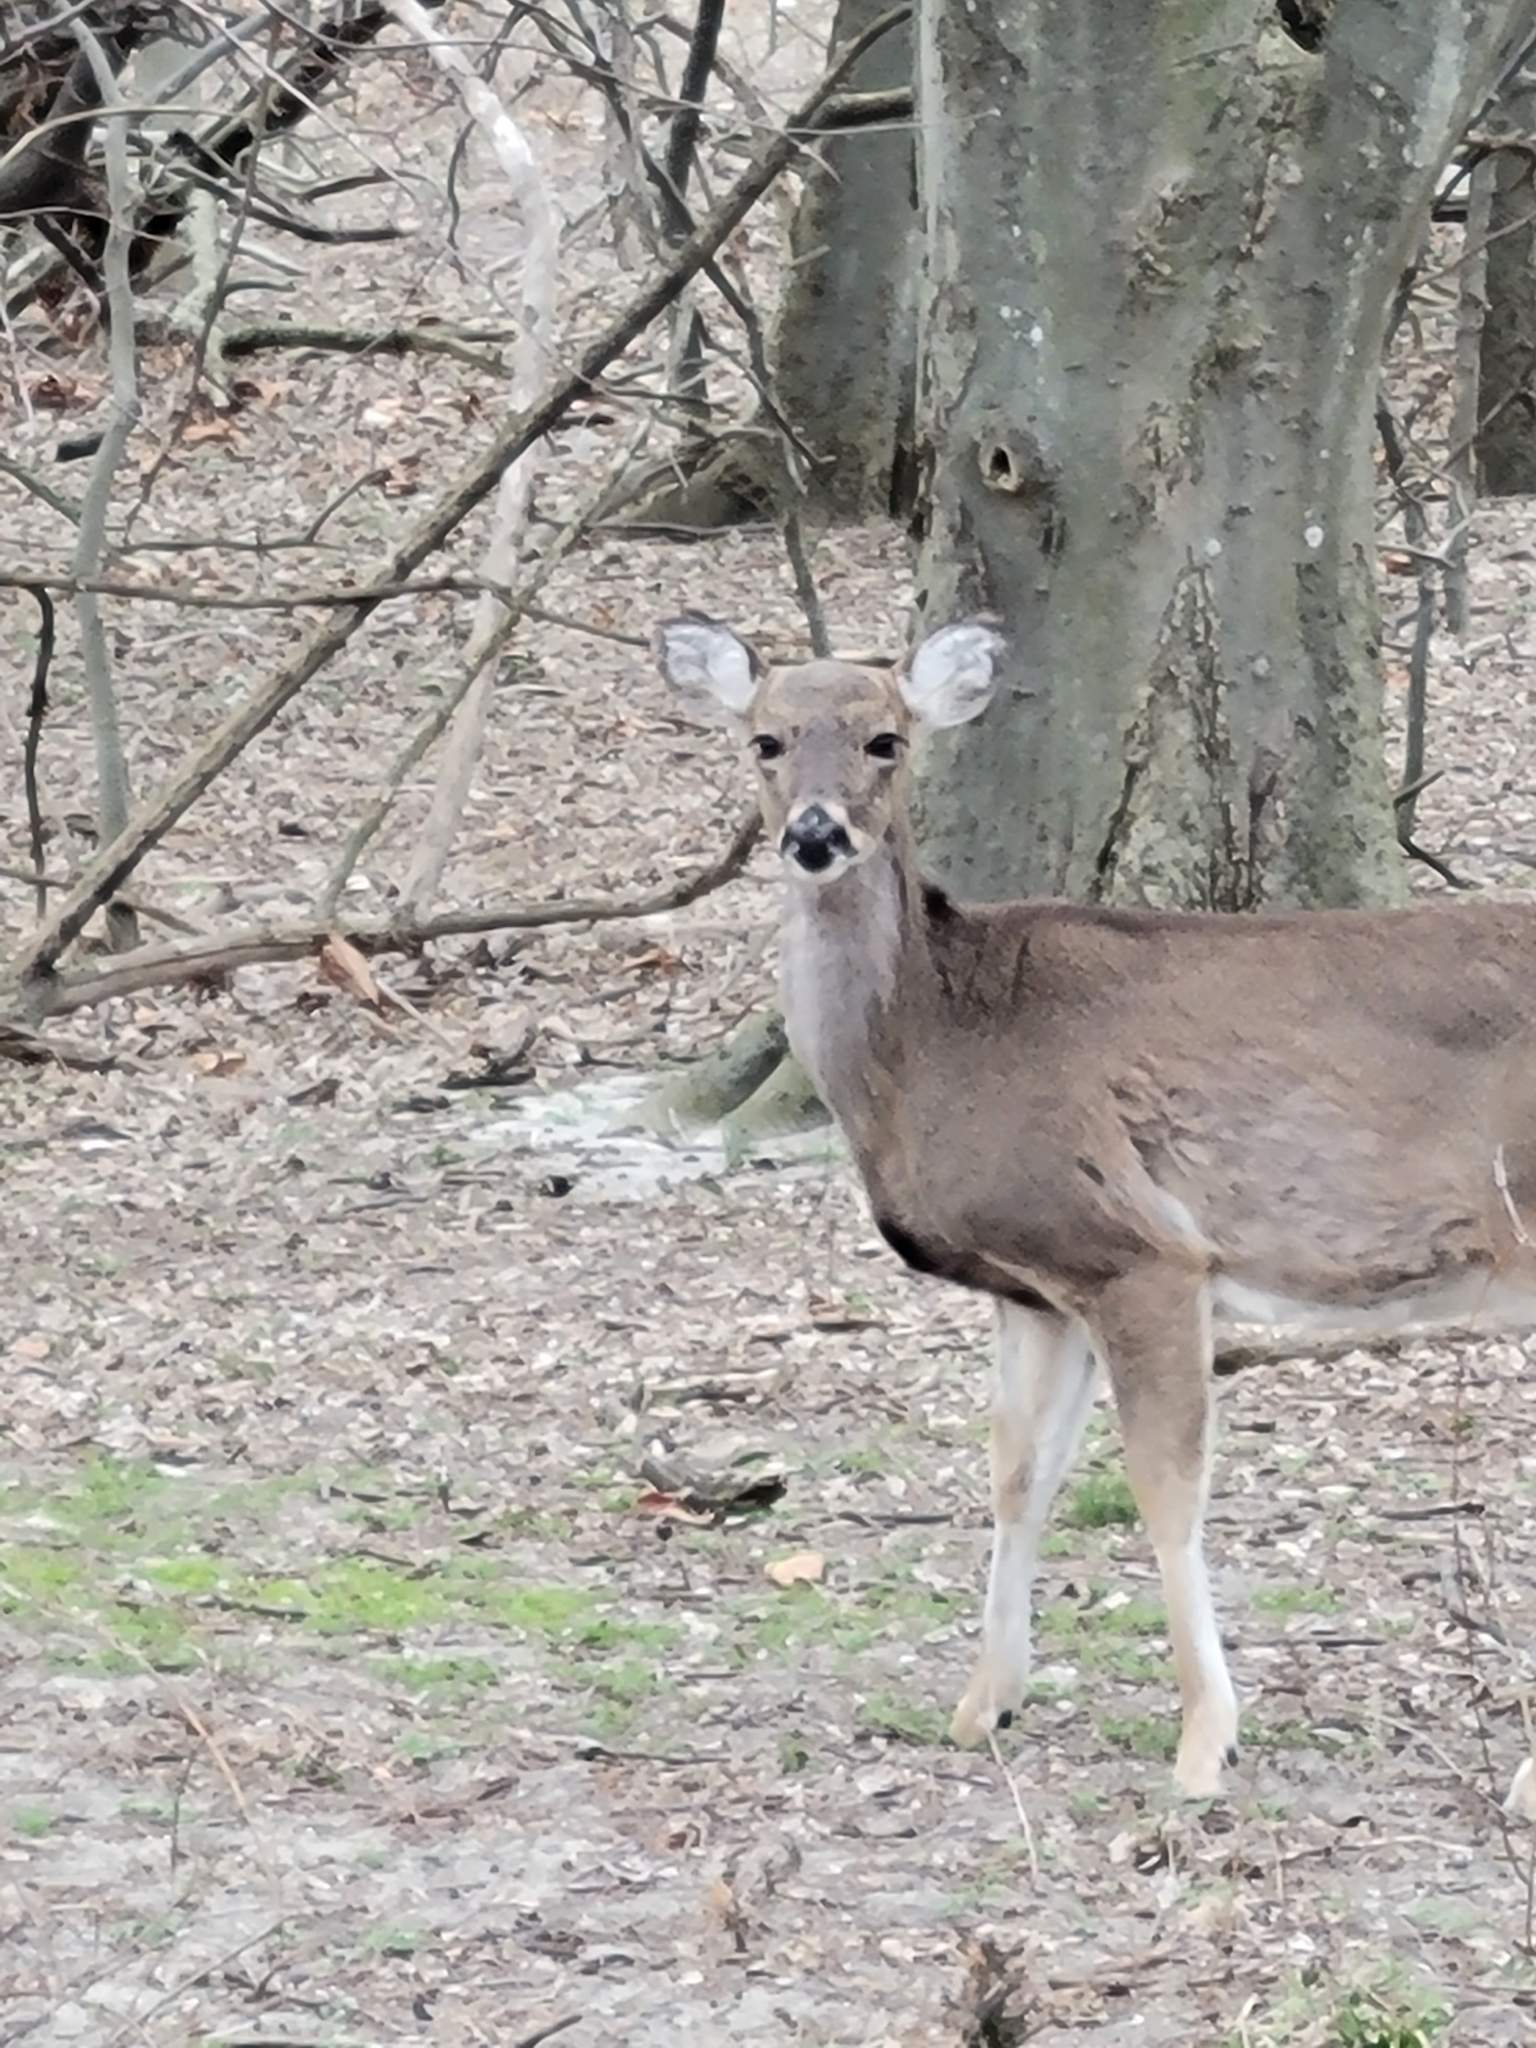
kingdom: Animalia
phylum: Chordata
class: Mammalia
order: Artiodactyla
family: Cervidae
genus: Odocoileus
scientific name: Odocoileus virginianus
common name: White-tailed deer
